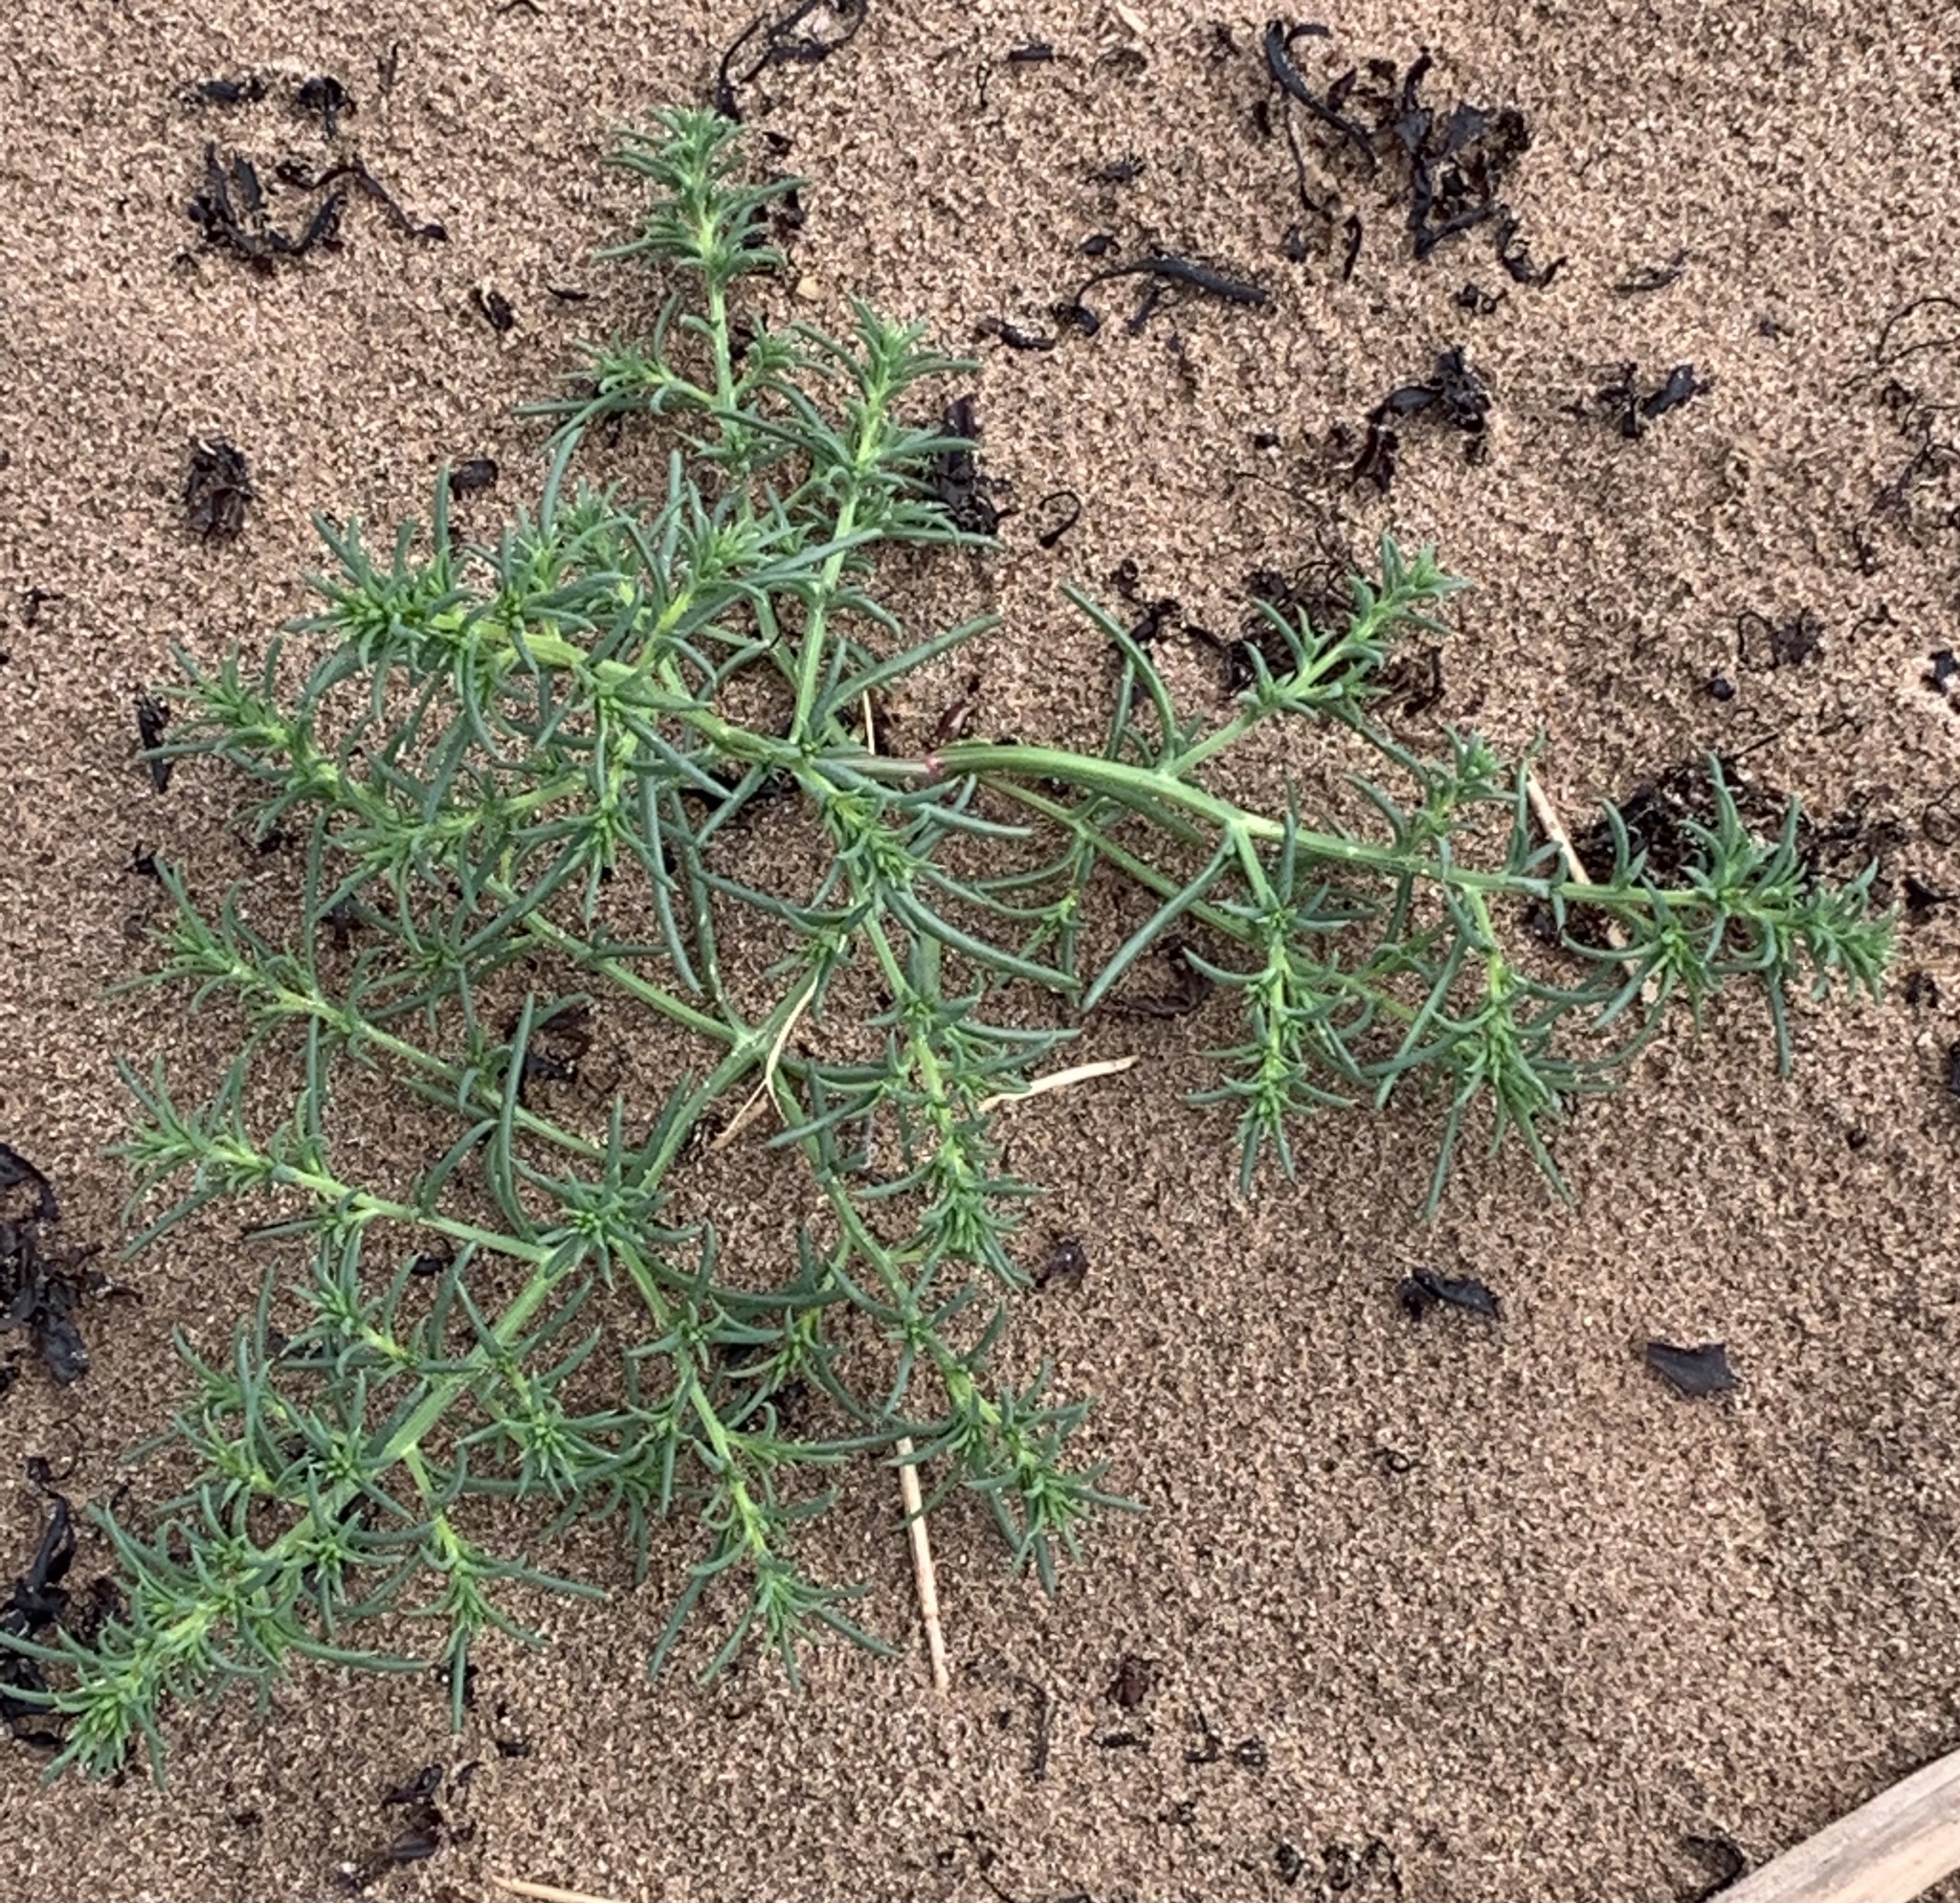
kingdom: Plantae
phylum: Tracheophyta
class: Magnoliopsida
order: Caryophyllales
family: Amaranthaceae
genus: Salsola
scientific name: Salsola kali
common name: Saltwort
